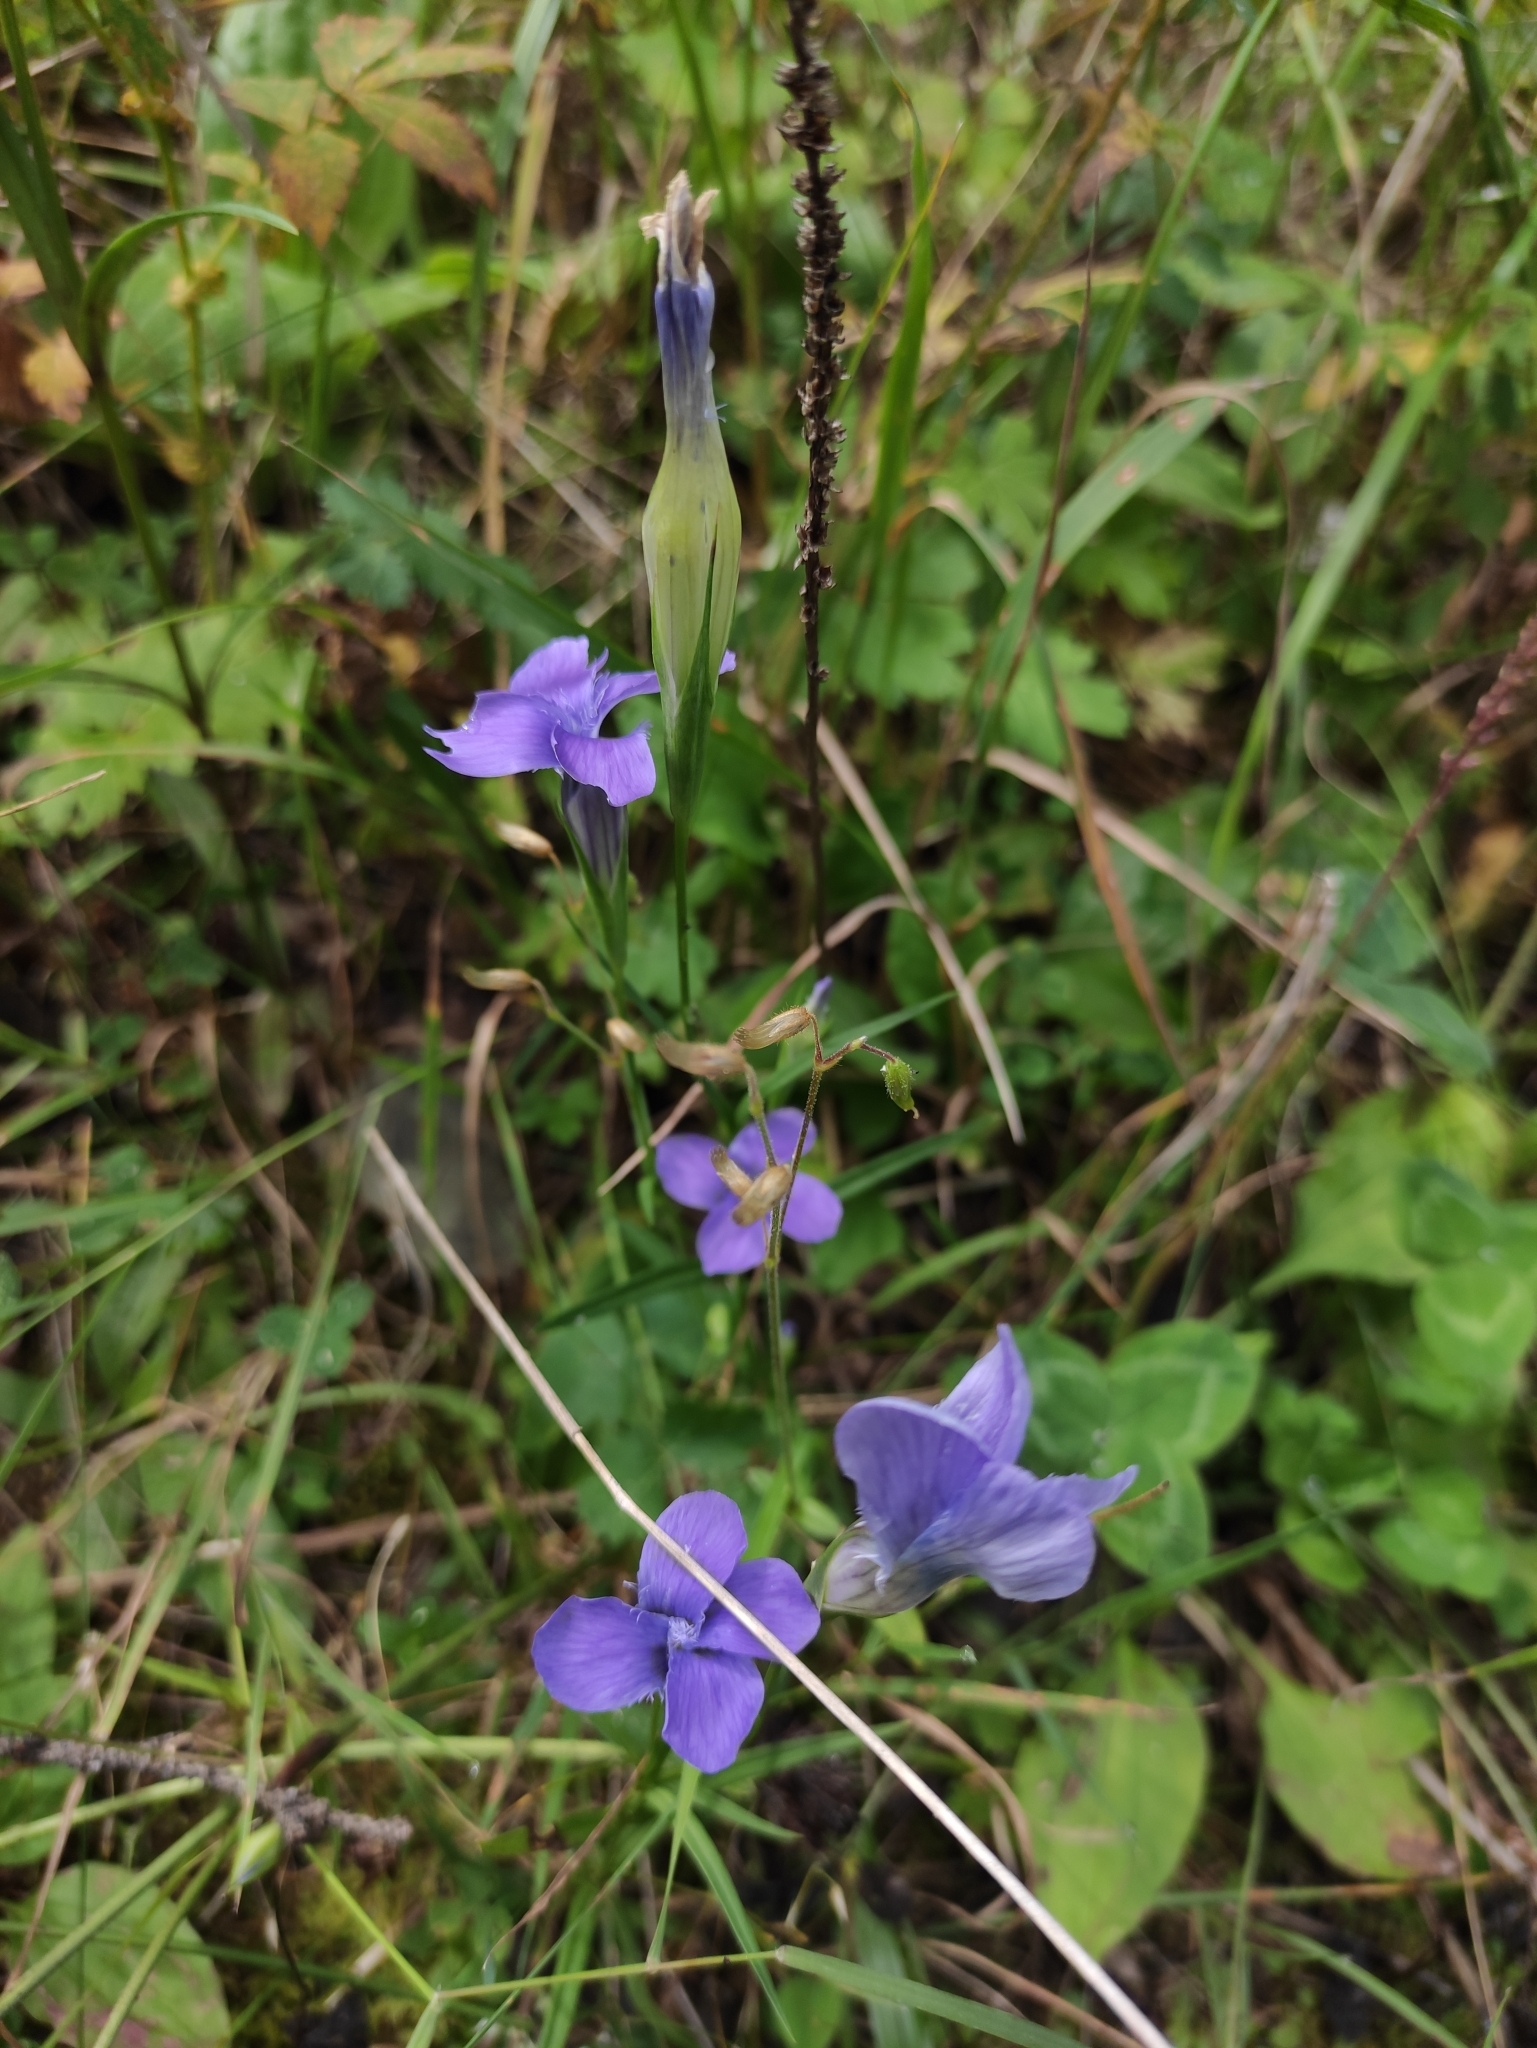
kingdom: Plantae
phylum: Tracheophyta
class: Magnoliopsida
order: Gentianales
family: Gentianaceae
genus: Gentianopsis
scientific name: Gentianopsis barbata
